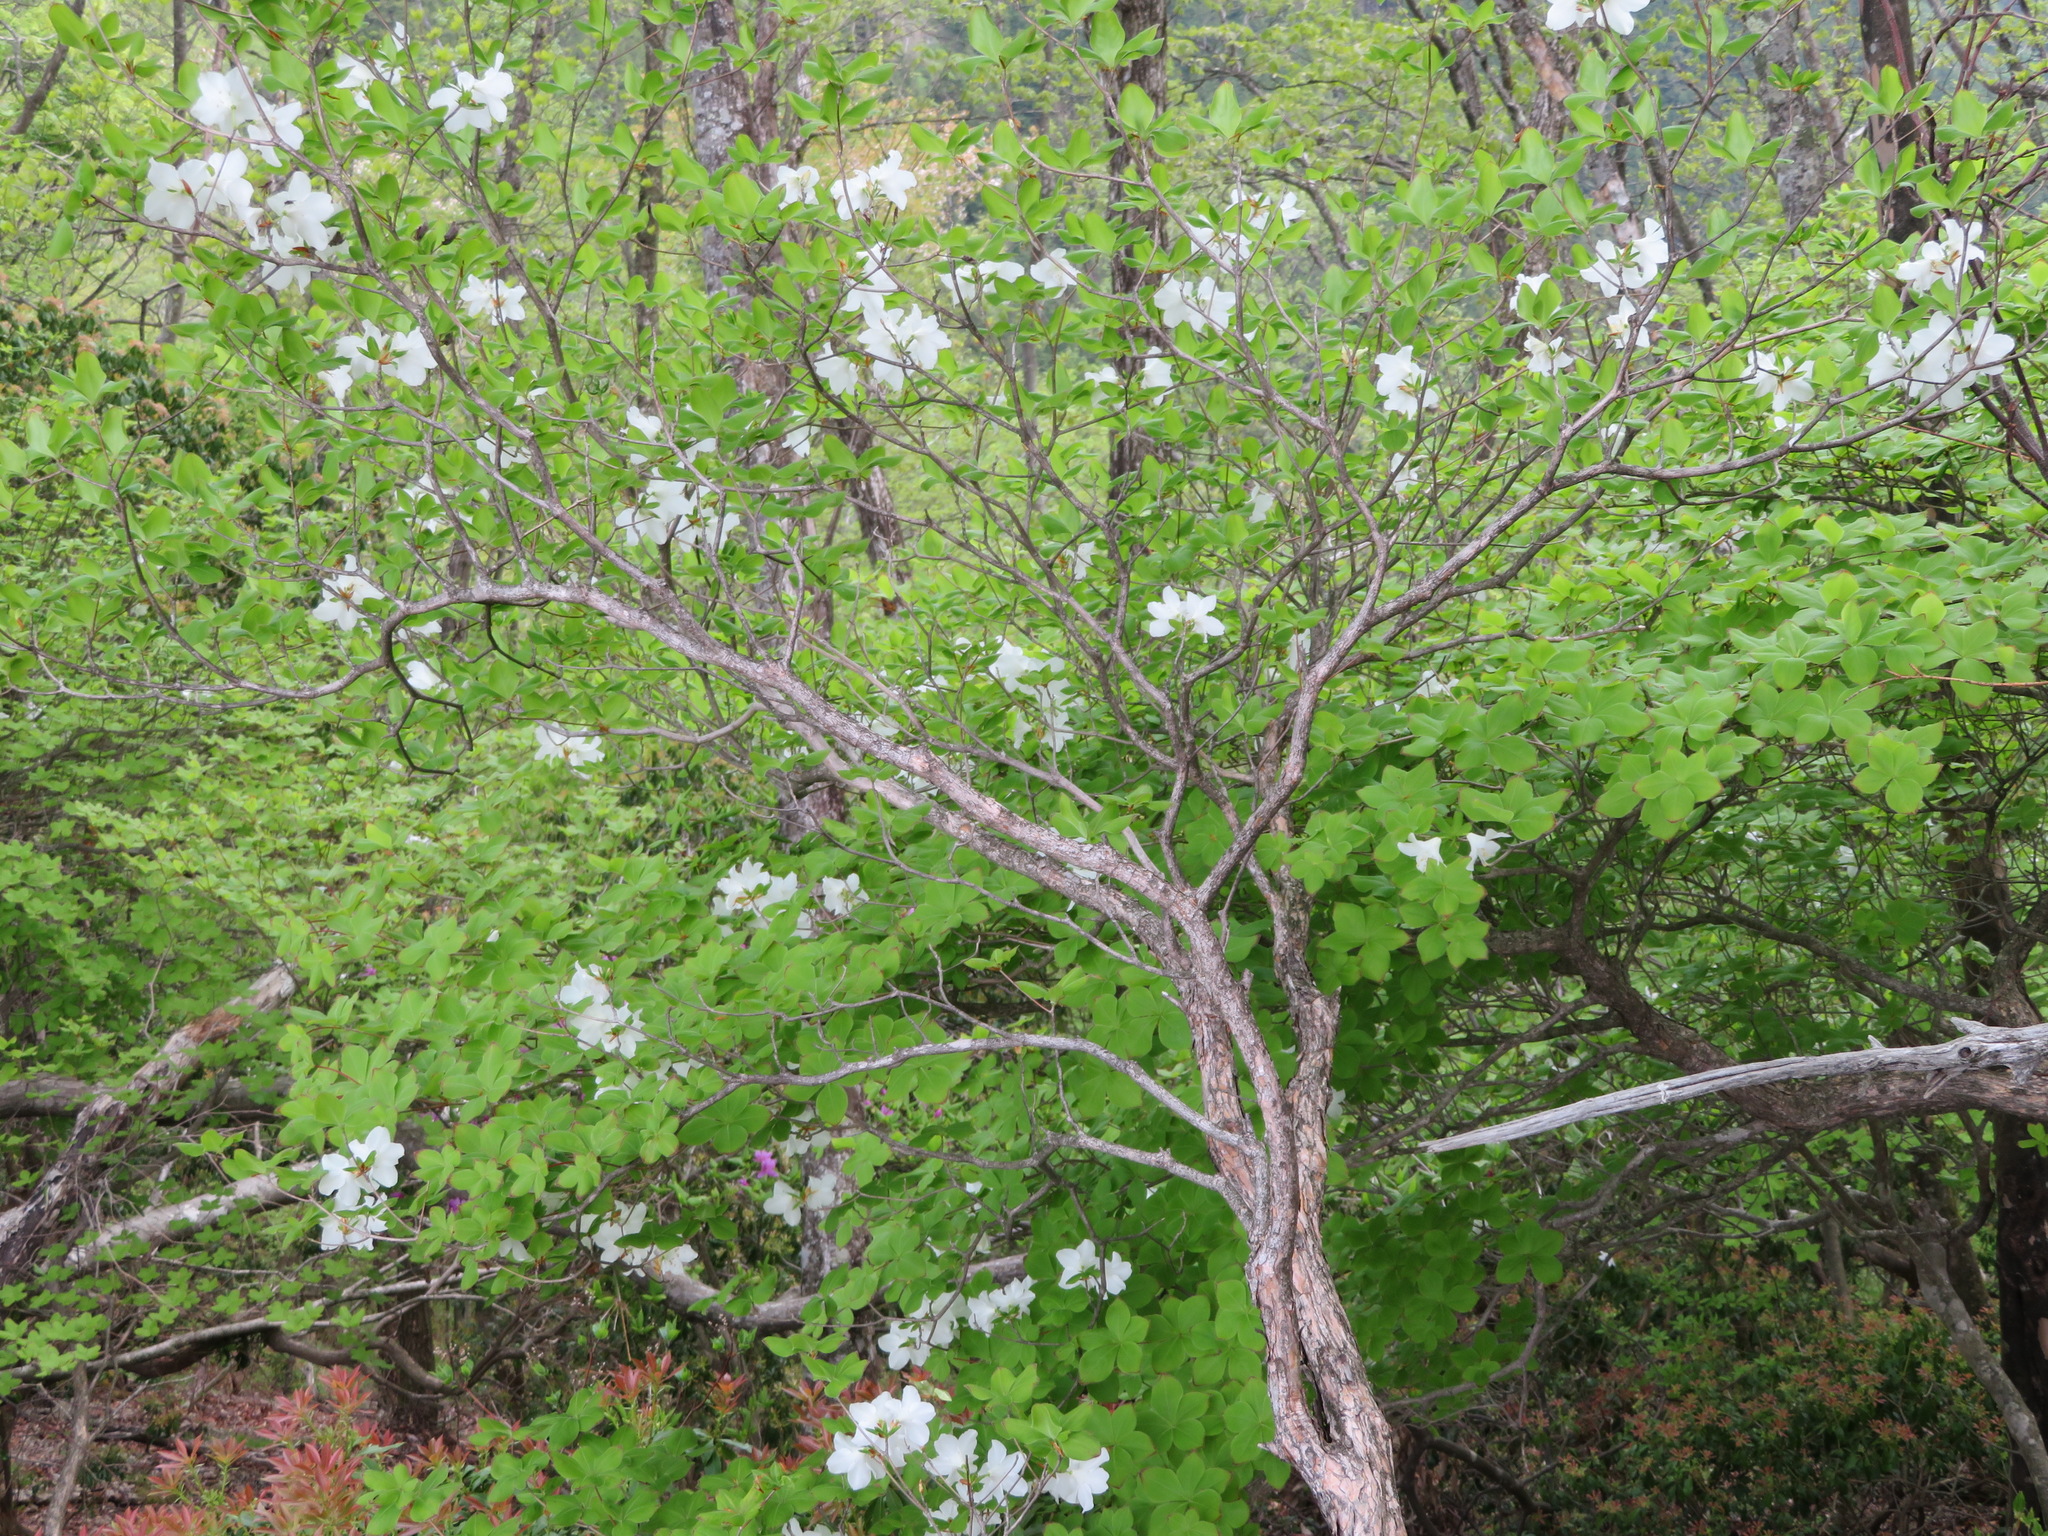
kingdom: Plantae
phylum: Tracheophyta
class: Magnoliopsida
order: Ericales
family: Ericaceae
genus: Rhododendron
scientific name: Rhododendron quinquefolium
